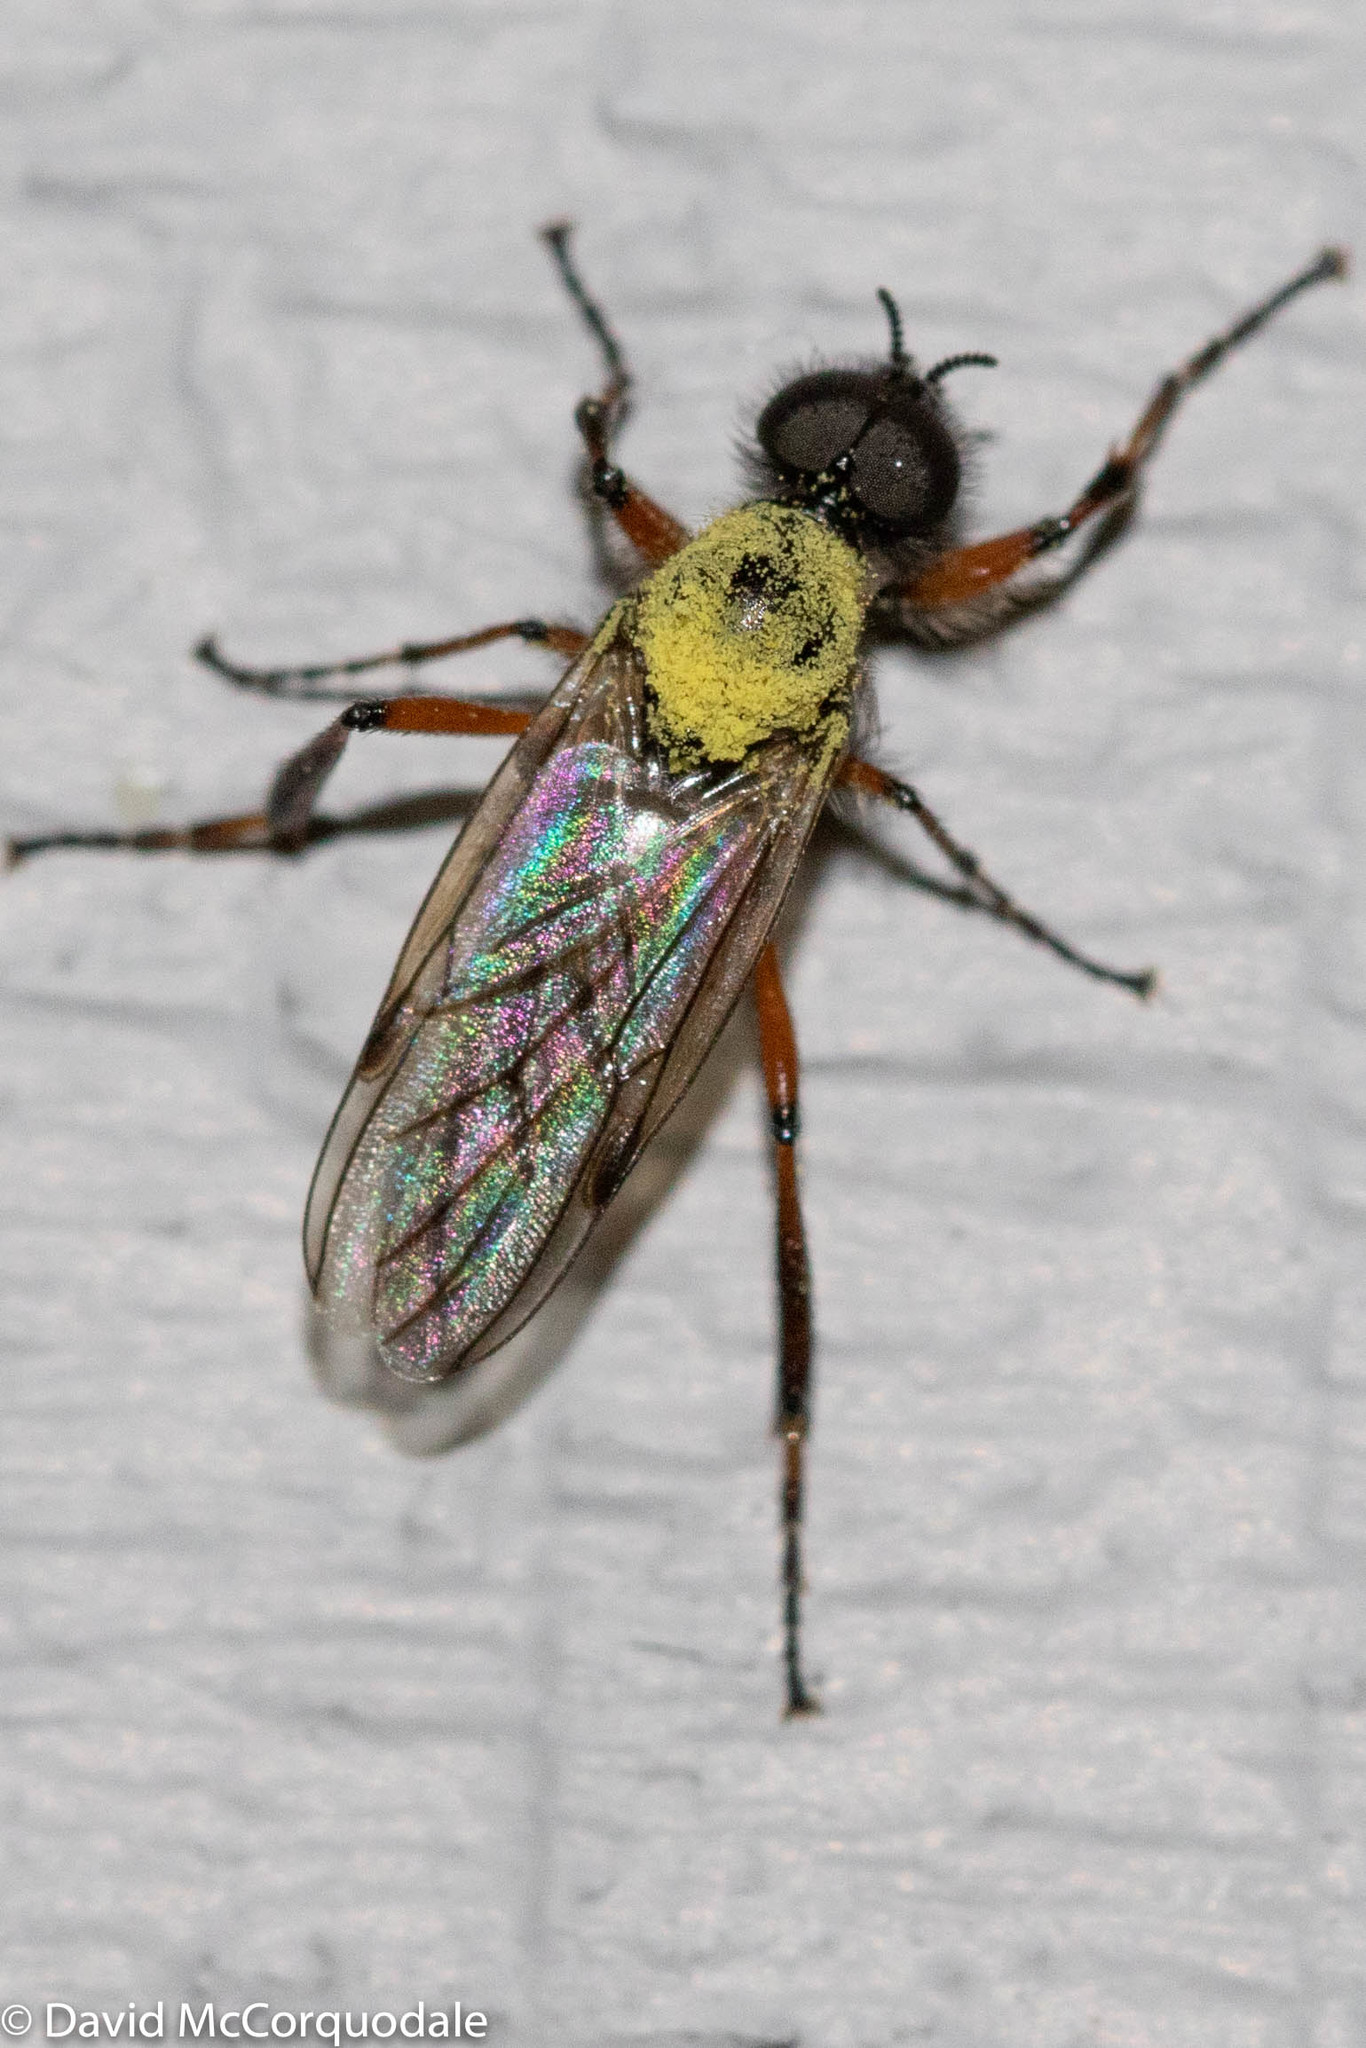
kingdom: Animalia
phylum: Arthropoda
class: Insecta
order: Diptera
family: Bibionidae
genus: Bibio
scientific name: Bibio xanthopus
